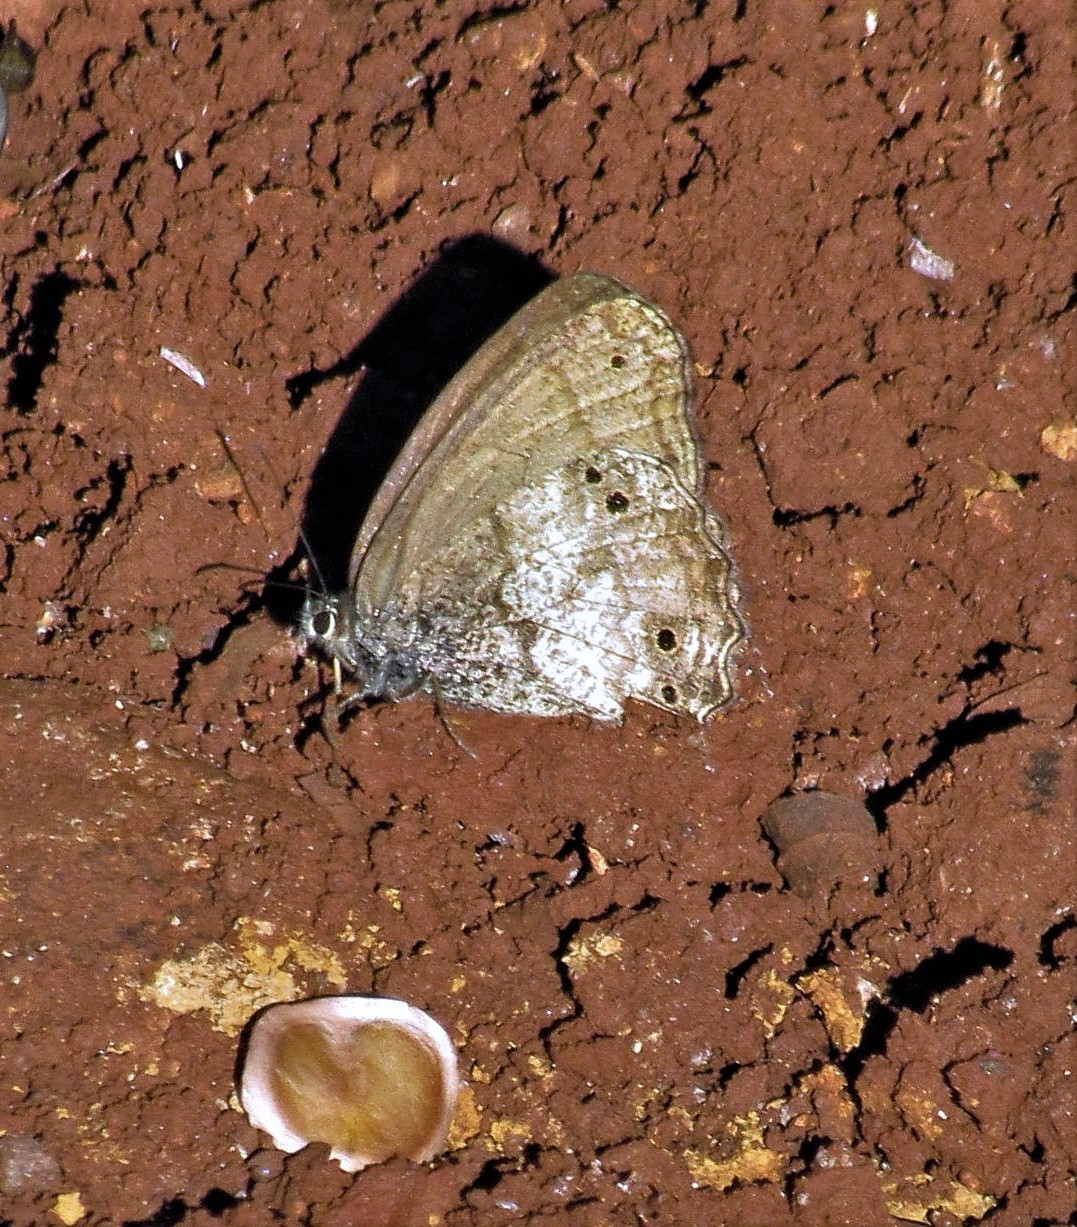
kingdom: Animalia
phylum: Arthropoda
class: Insecta
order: Lepidoptera
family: Nymphalidae
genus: Carminda
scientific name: Carminda griseldis
